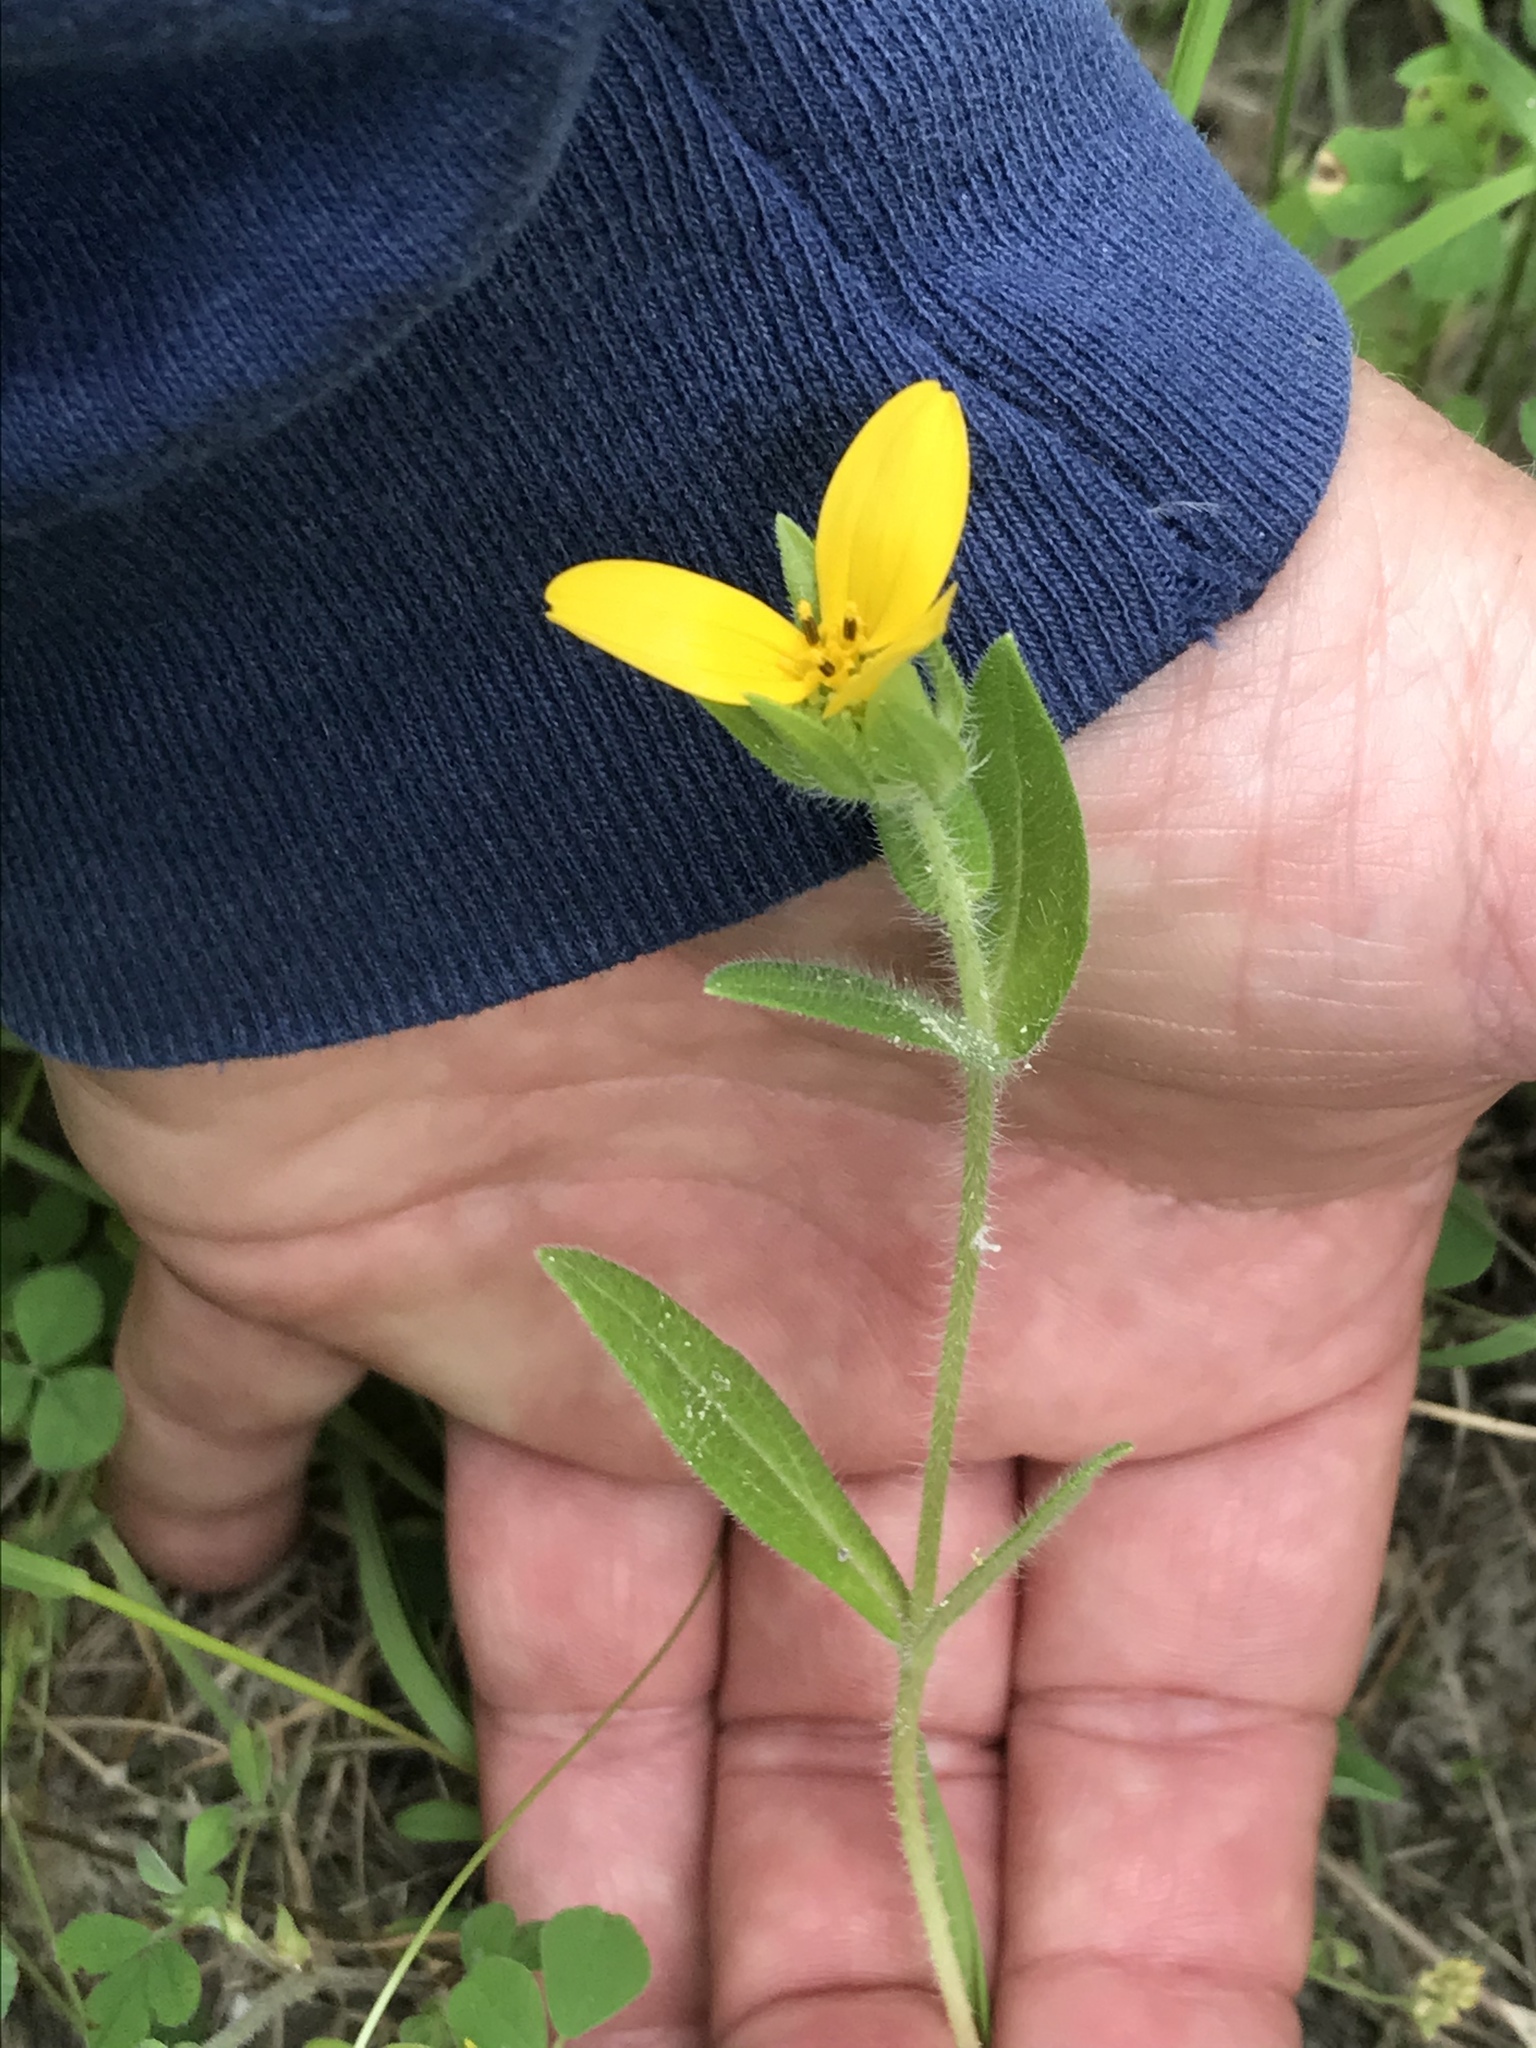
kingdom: Plantae
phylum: Tracheophyta
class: Magnoliopsida
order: Asterales
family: Asteraceae
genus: Lindheimera
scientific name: Lindheimera texana
